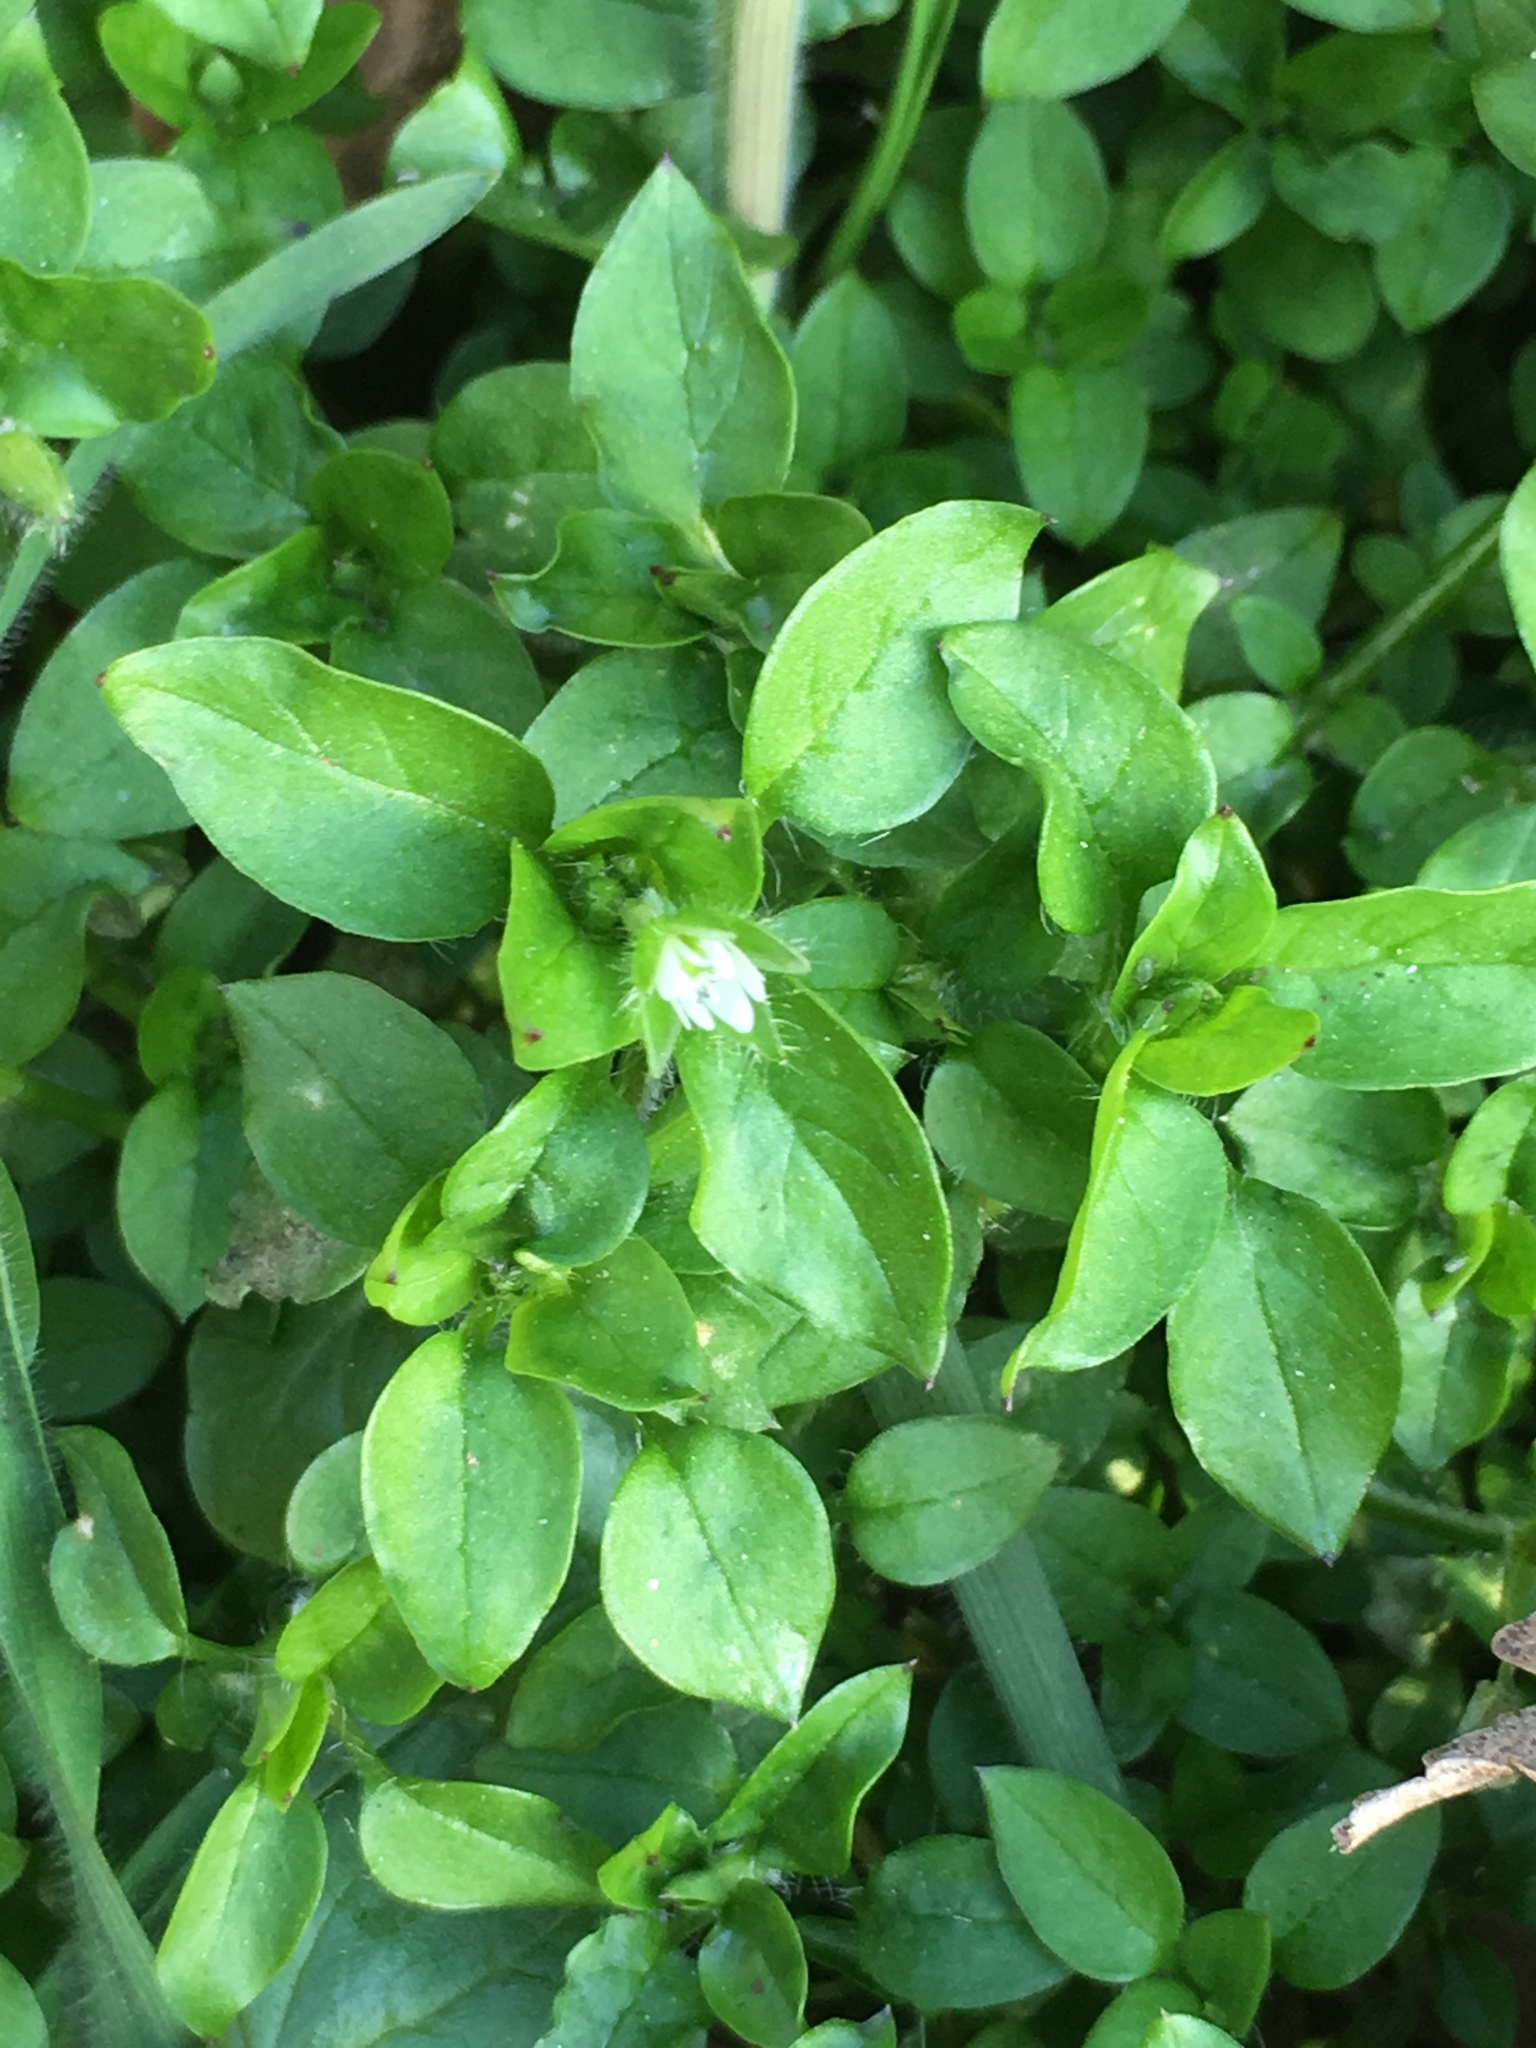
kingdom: Plantae
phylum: Tracheophyta
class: Magnoliopsida
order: Caryophyllales
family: Caryophyllaceae
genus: Stellaria
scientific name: Stellaria media
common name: Common chickweed
